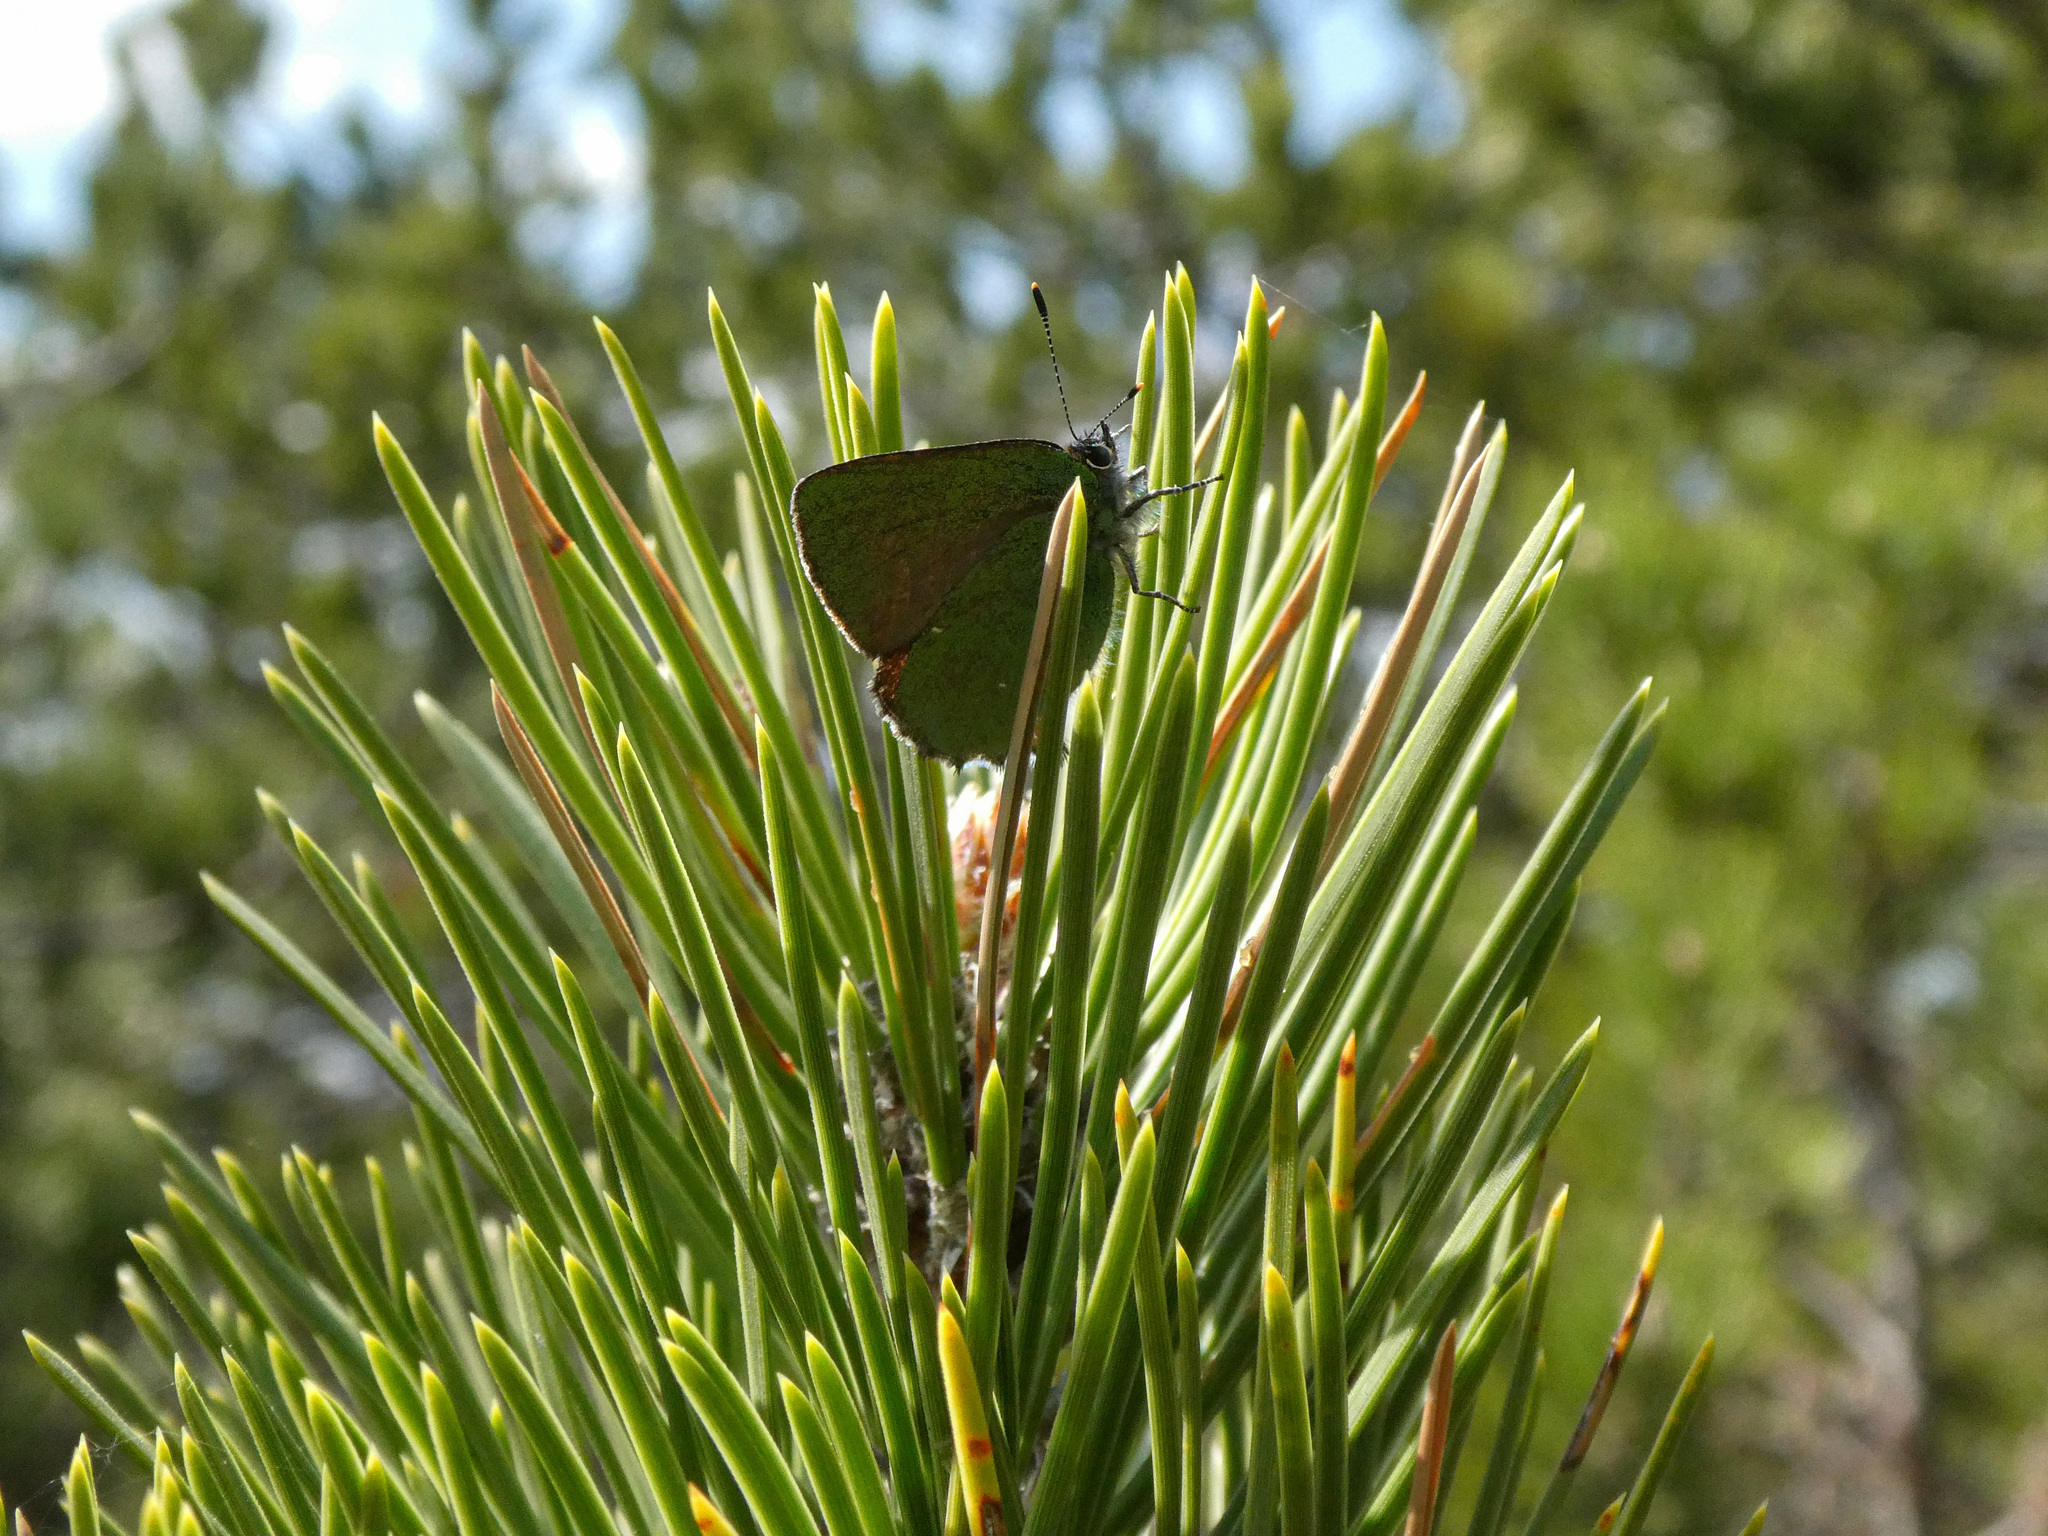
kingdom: Animalia
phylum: Arthropoda
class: Insecta
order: Lepidoptera
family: Lycaenidae
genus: Callophrys
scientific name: Callophrys rubi
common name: Green hairstreak
